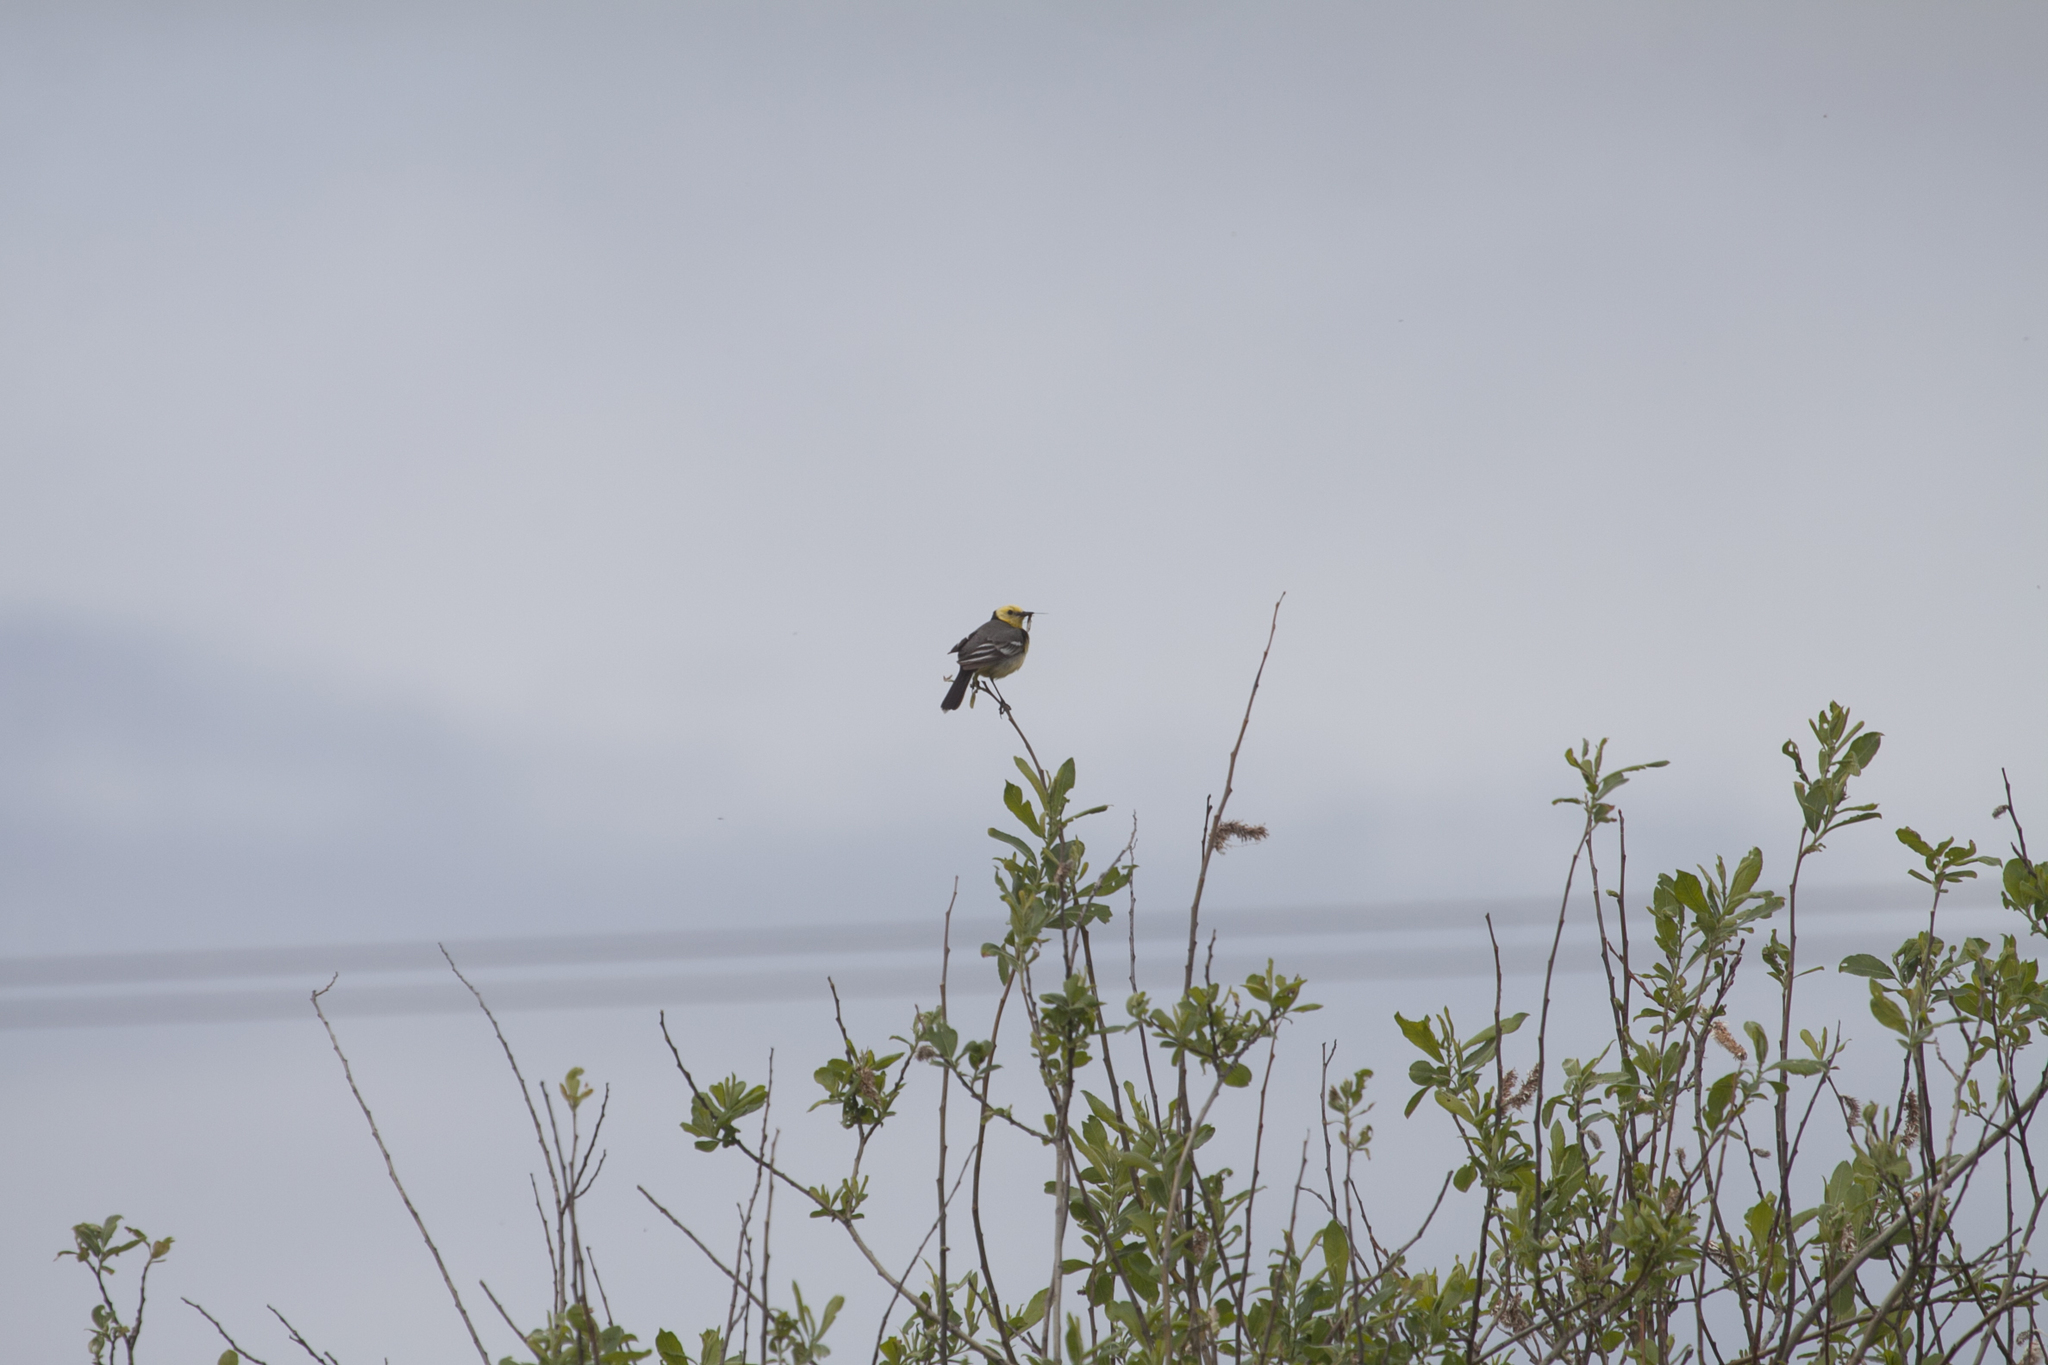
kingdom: Animalia
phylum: Chordata
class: Aves
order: Passeriformes
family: Motacillidae
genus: Motacilla
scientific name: Motacilla citreola
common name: Citrine wagtail
